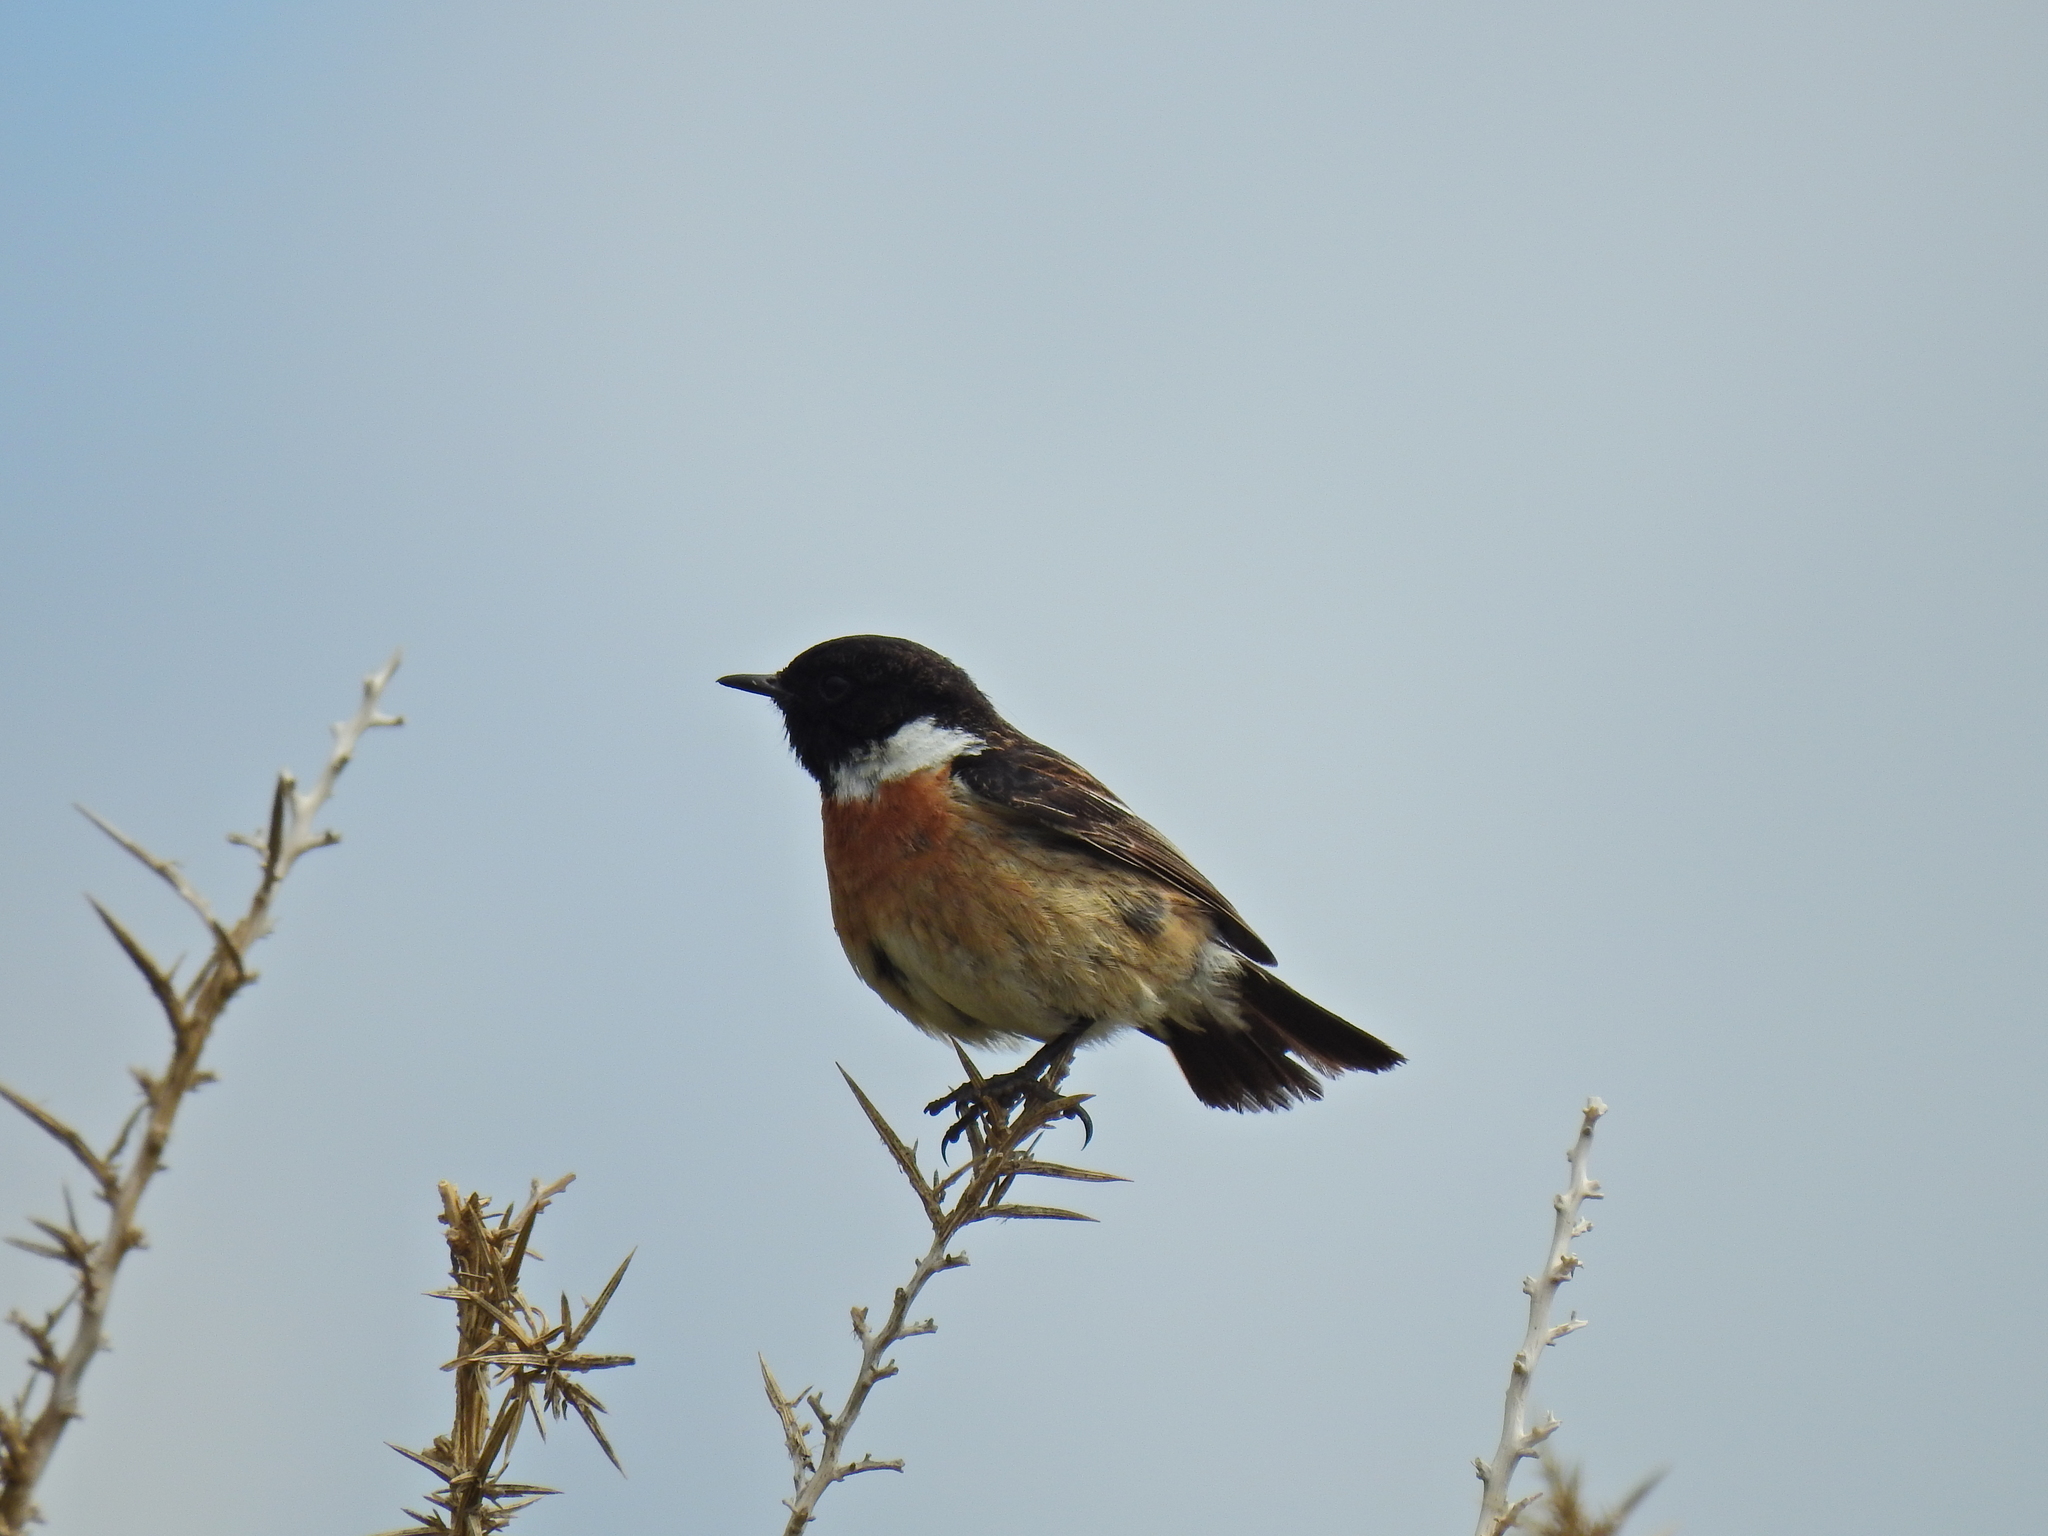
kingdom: Animalia
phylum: Chordata
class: Aves
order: Passeriformes
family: Muscicapidae
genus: Saxicola
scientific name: Saxicola rubicola
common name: European stonechat
